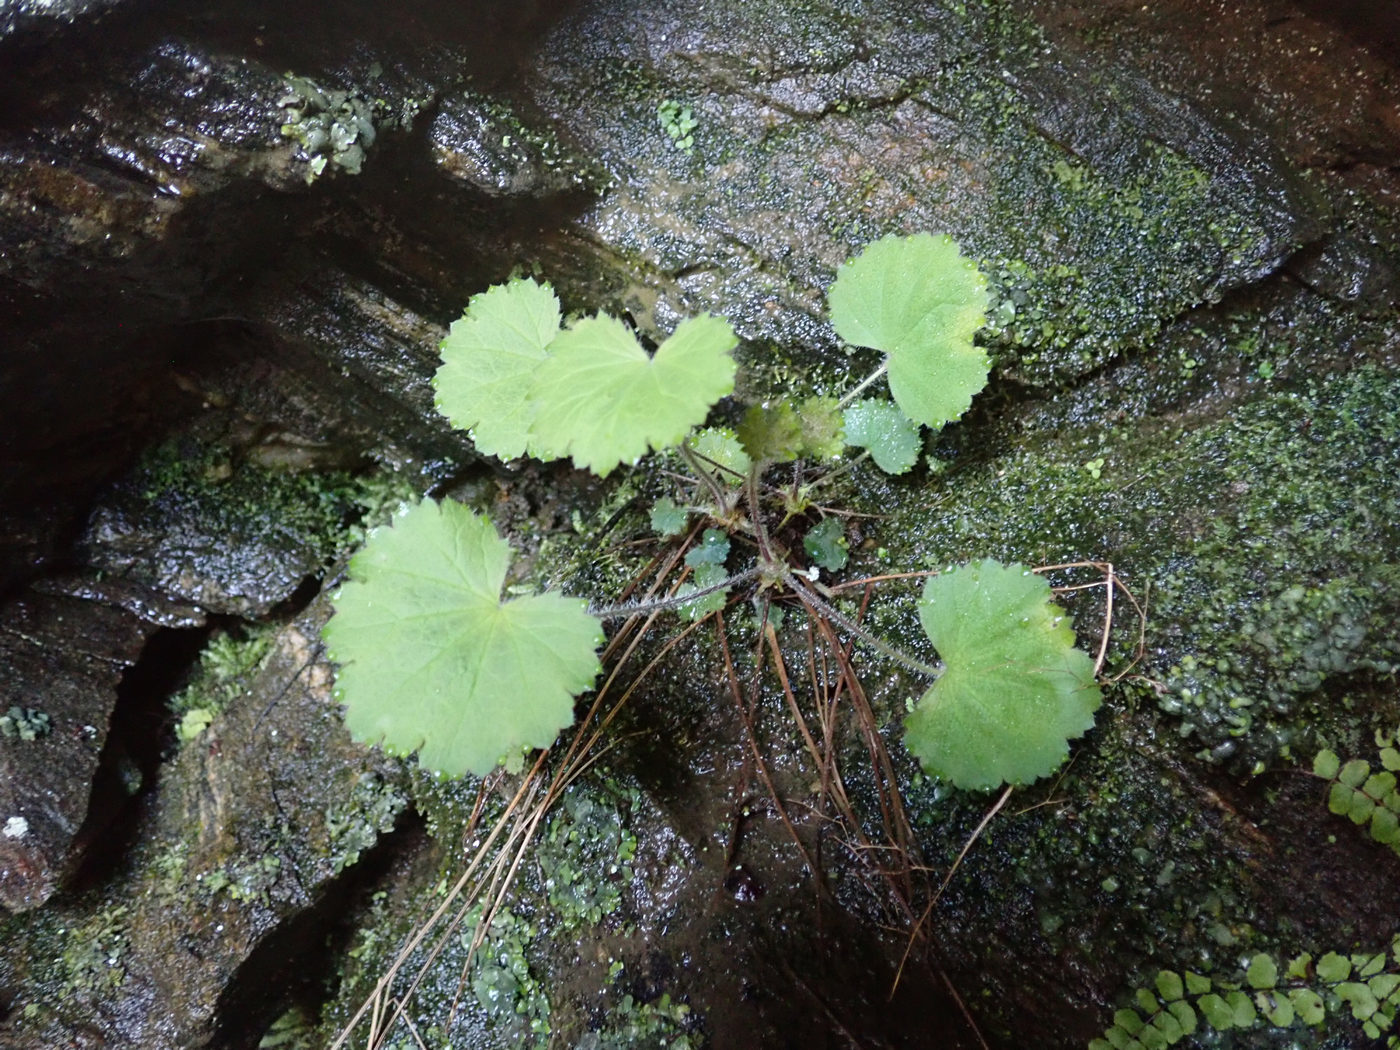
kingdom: Plantae
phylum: Tracheophyta
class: Magnoliopsida
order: Saxifragales
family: Saxifragaceae
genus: Heuchera
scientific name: Heuchera parviflora
